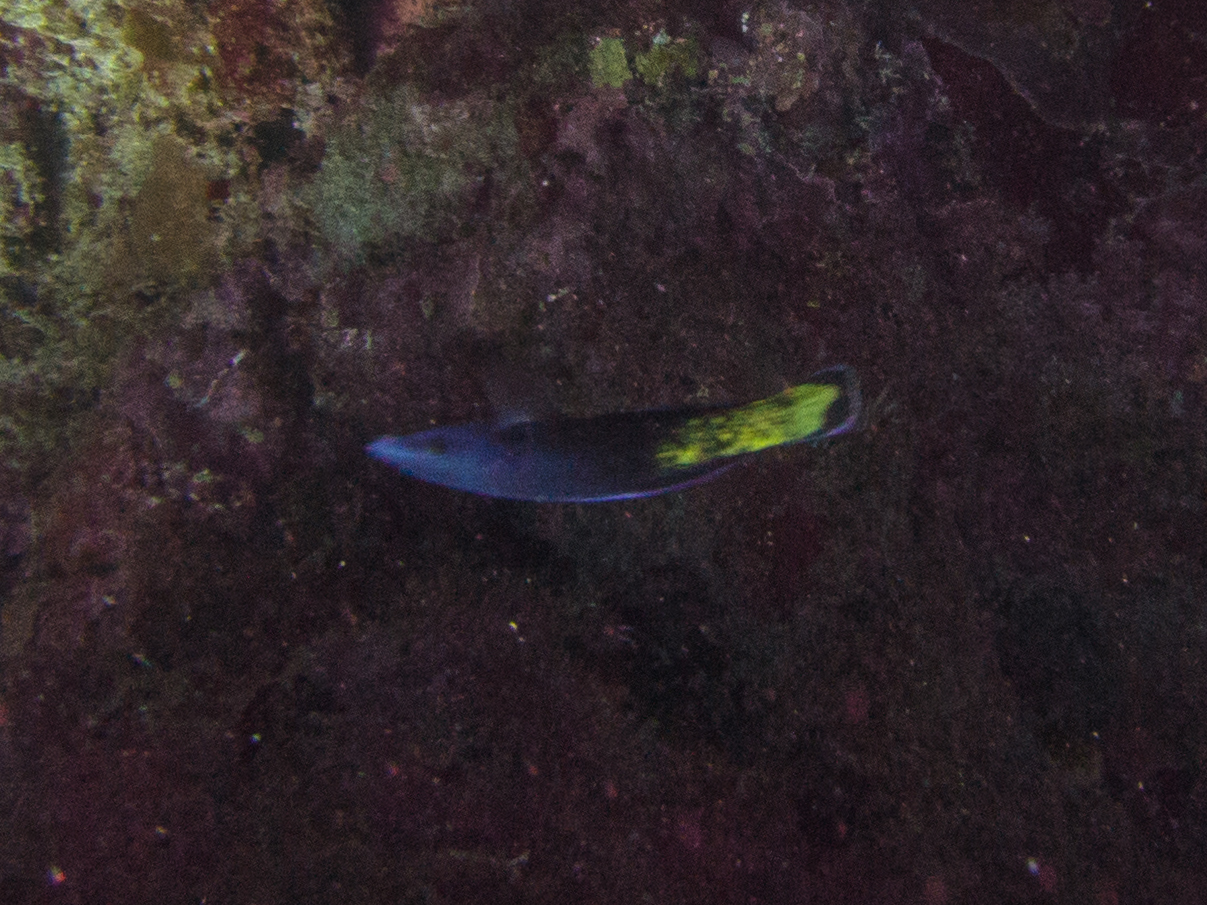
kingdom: Animalia
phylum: Chordata
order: Perciformes
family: Labridae
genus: Labroides
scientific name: Labroides bicolor
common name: Bicolor cleaner wrasse
